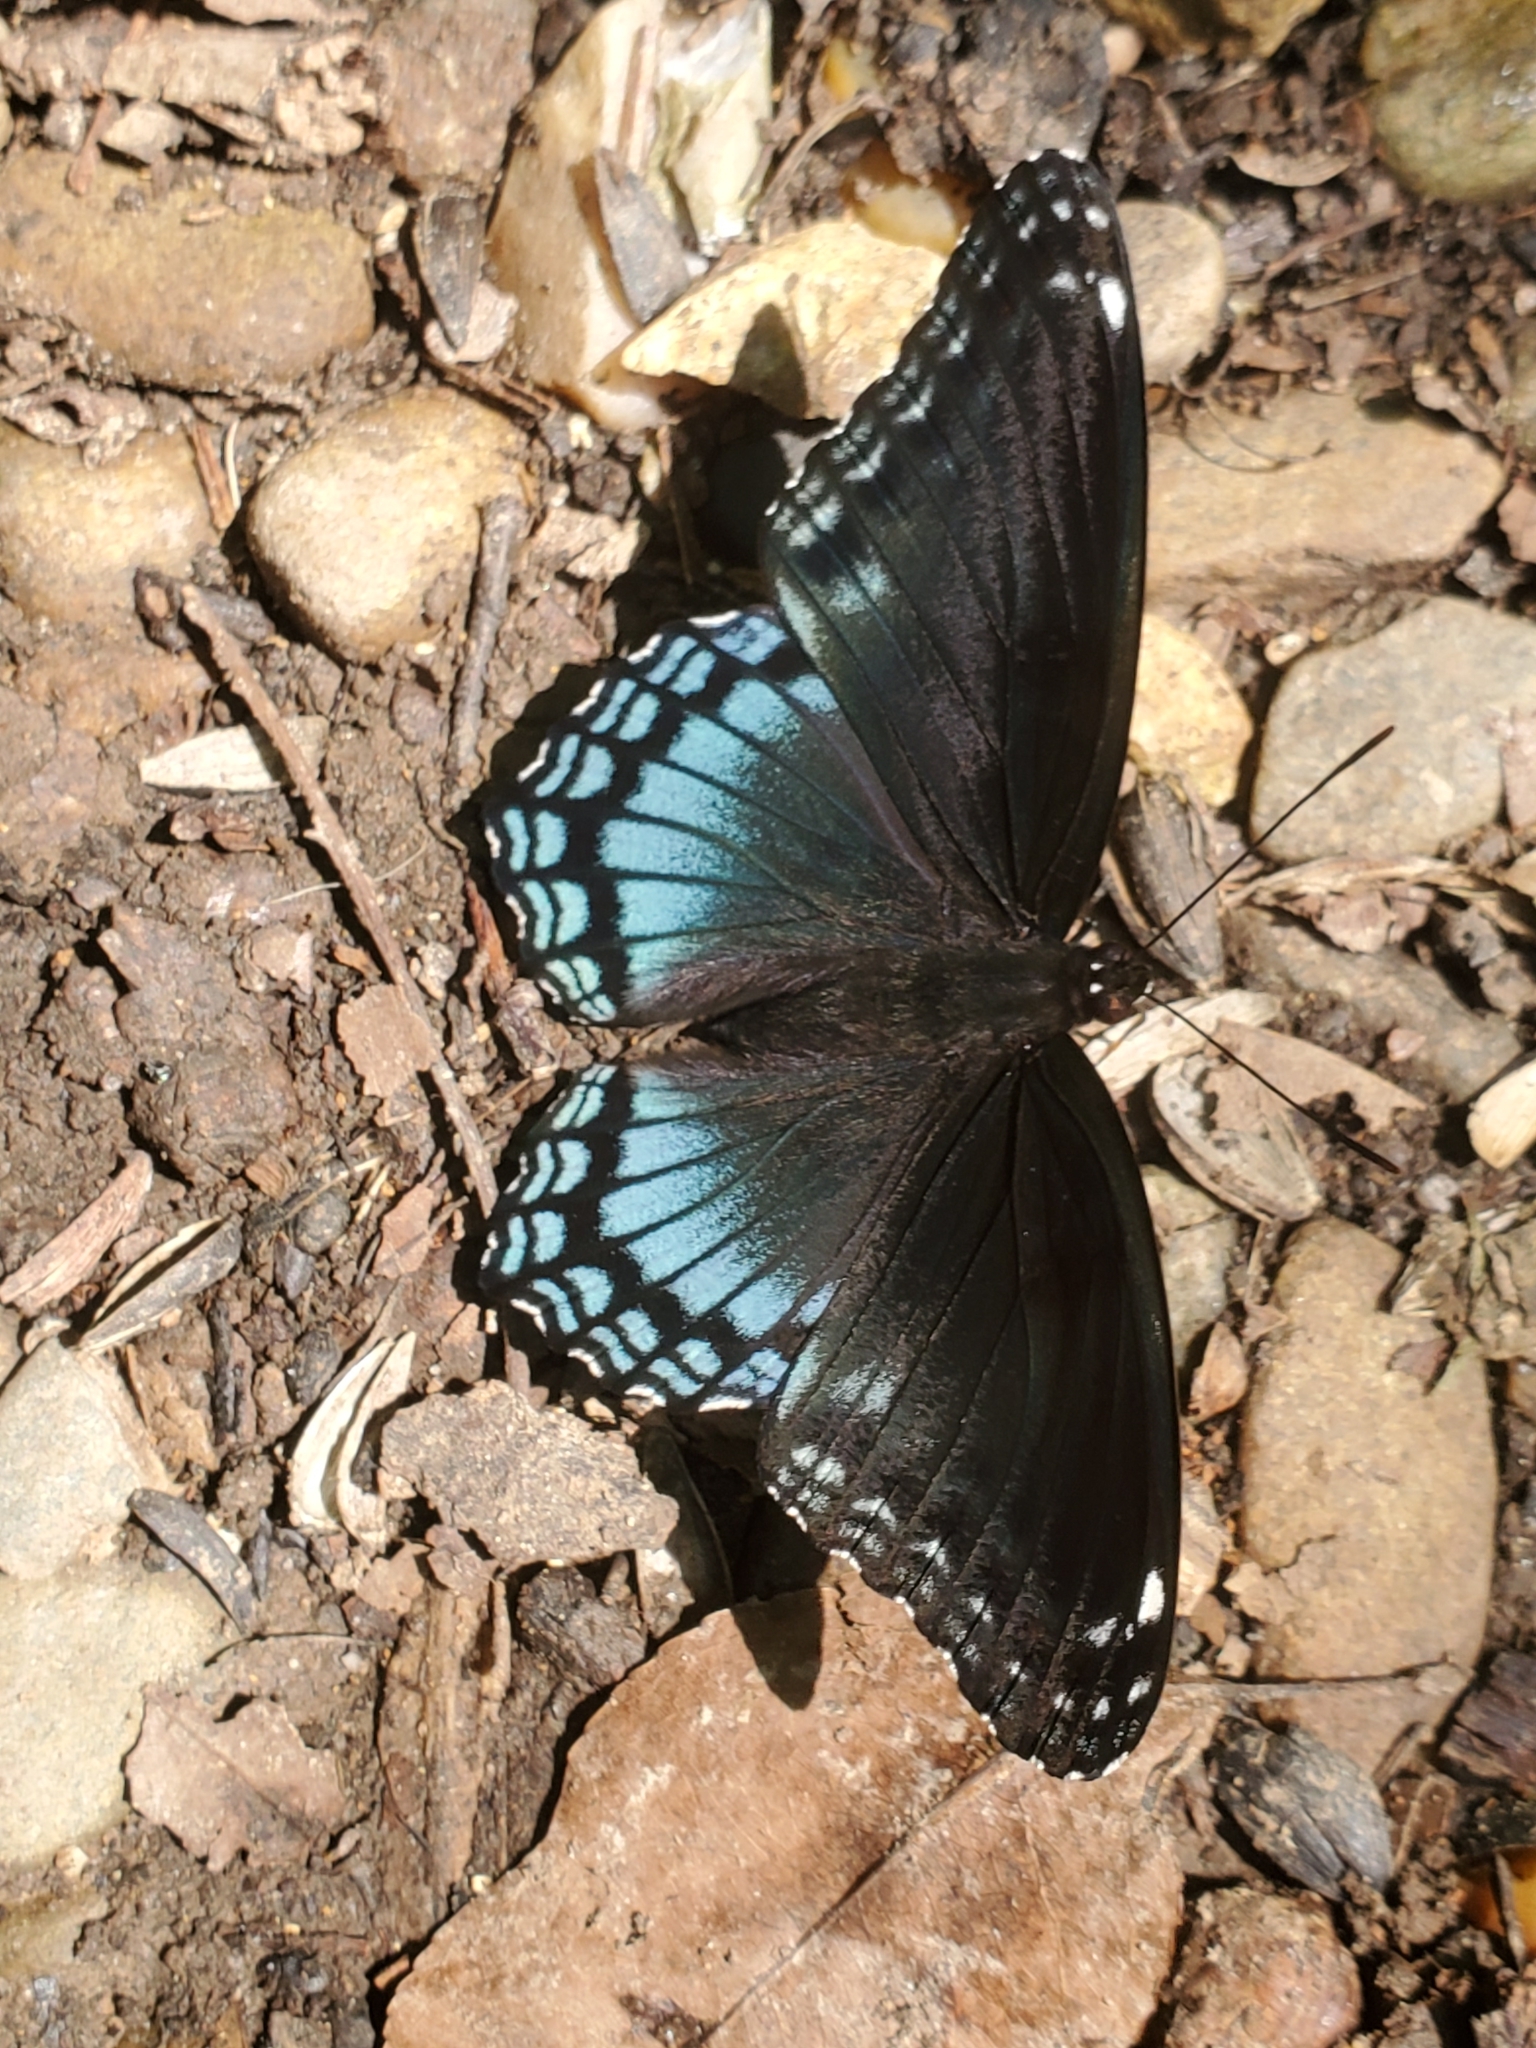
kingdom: Animalia
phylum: Arthropoda
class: Insecta
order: Lepidoptera
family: Nymphalidae
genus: Limenitis
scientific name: Limenitis astyanax
